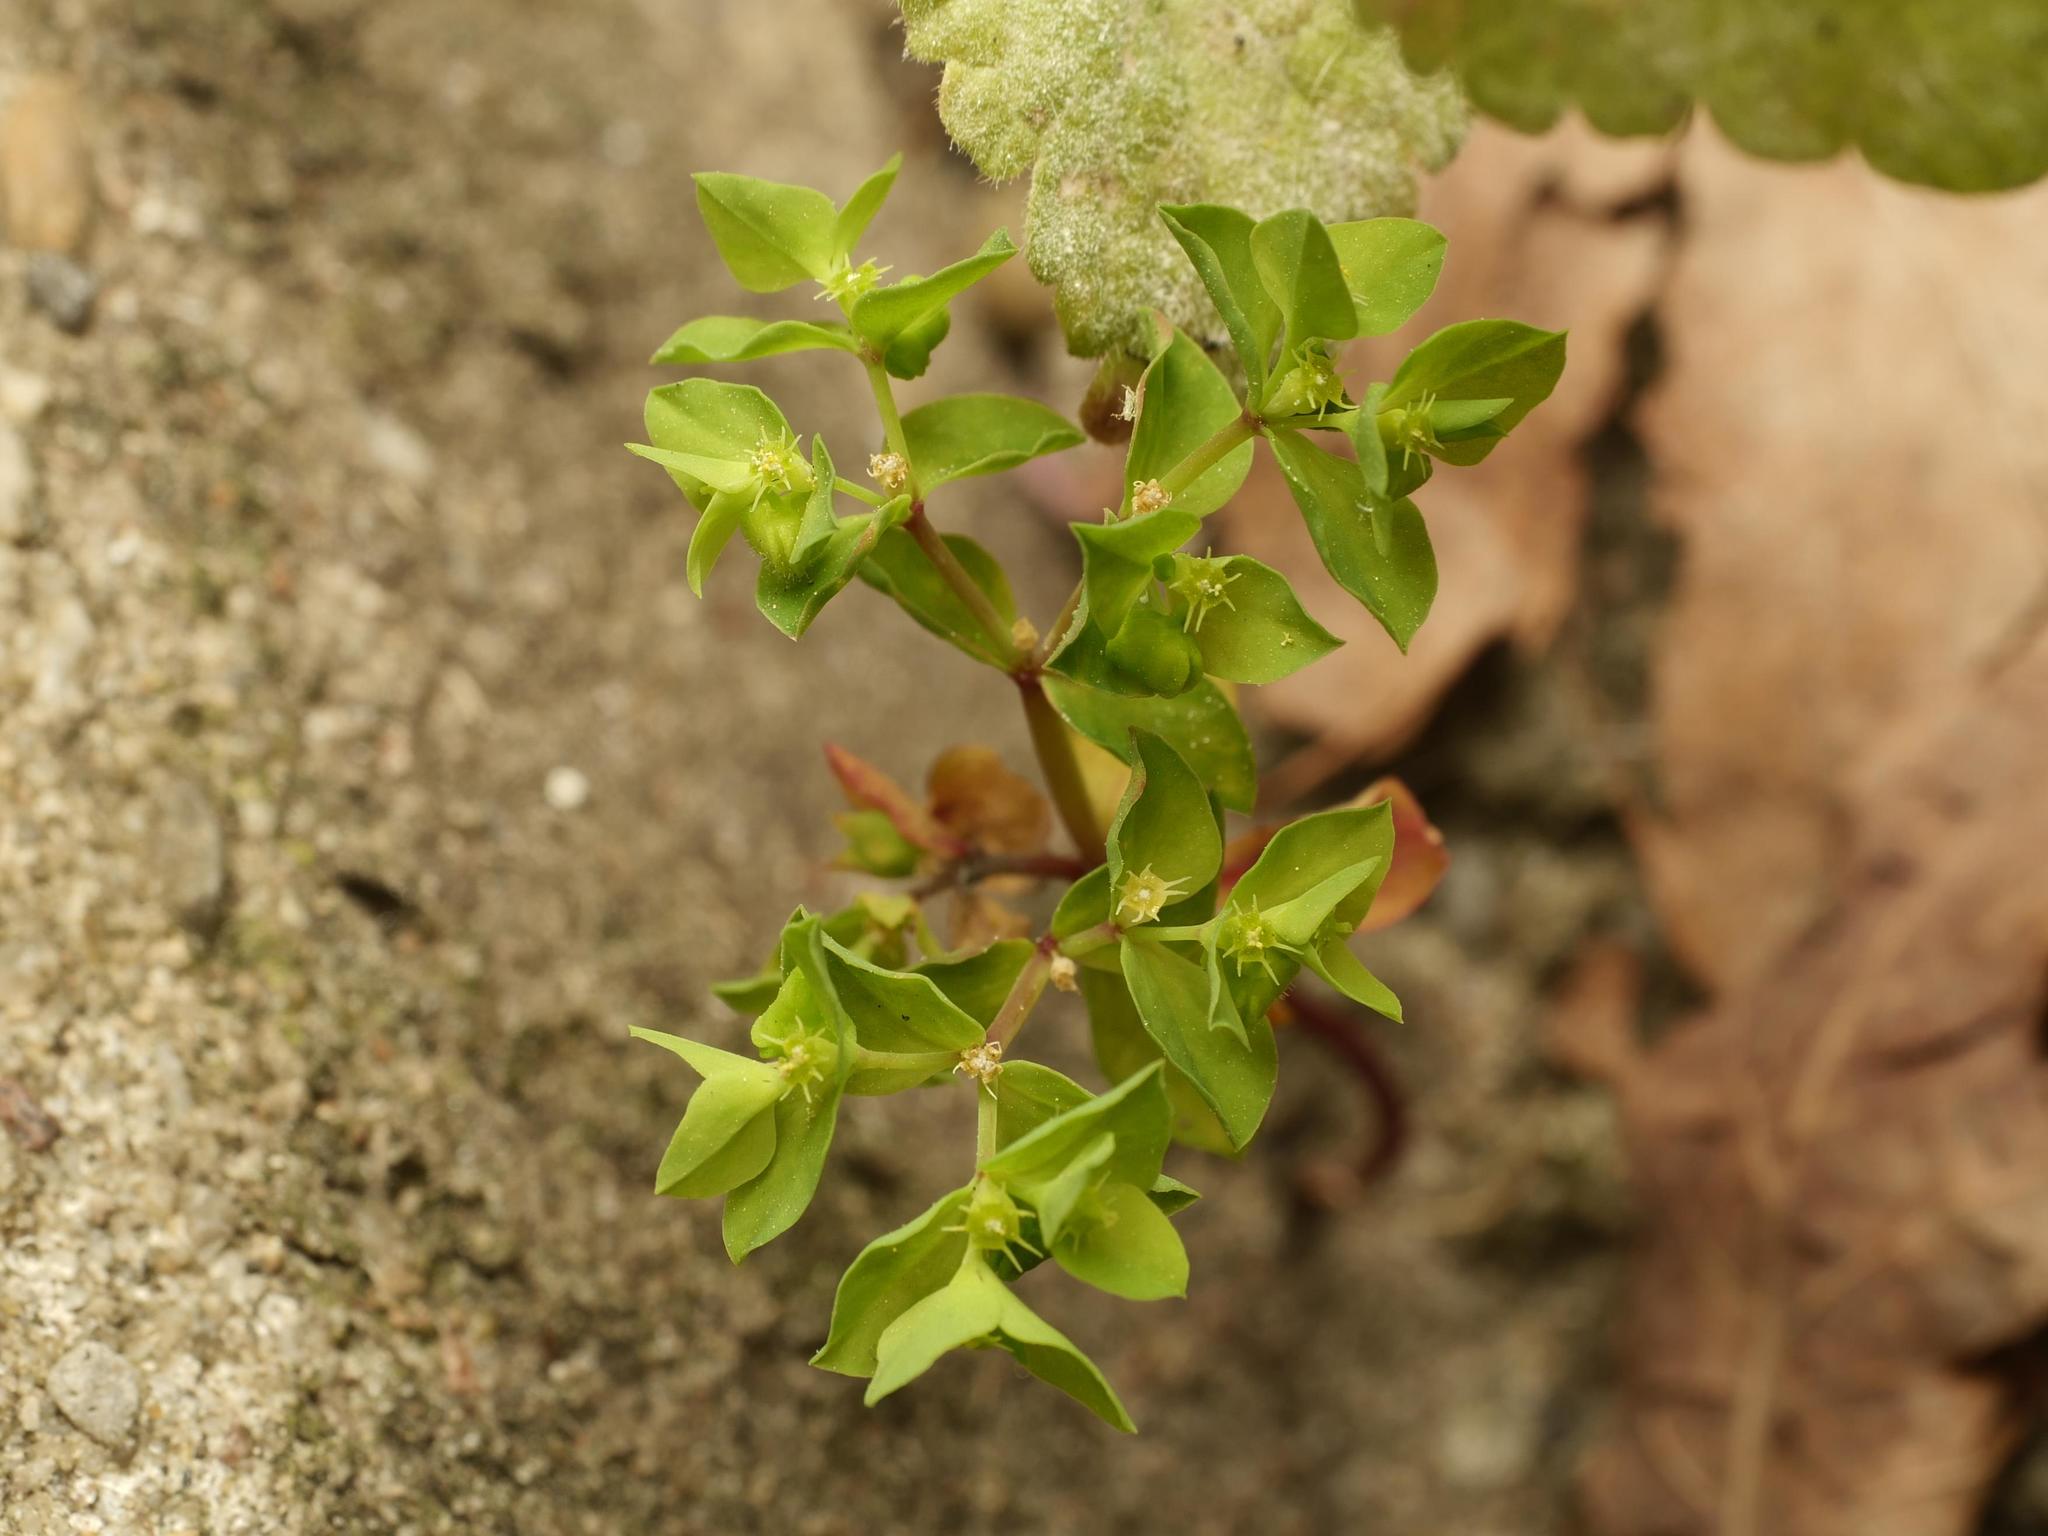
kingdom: Plantae
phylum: Tracheophyta
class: Magnoliopsida
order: Malpighiales
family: Euphorbiaceae
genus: Euphorbia
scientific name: Euphorbia peplus
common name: Petty spurge
